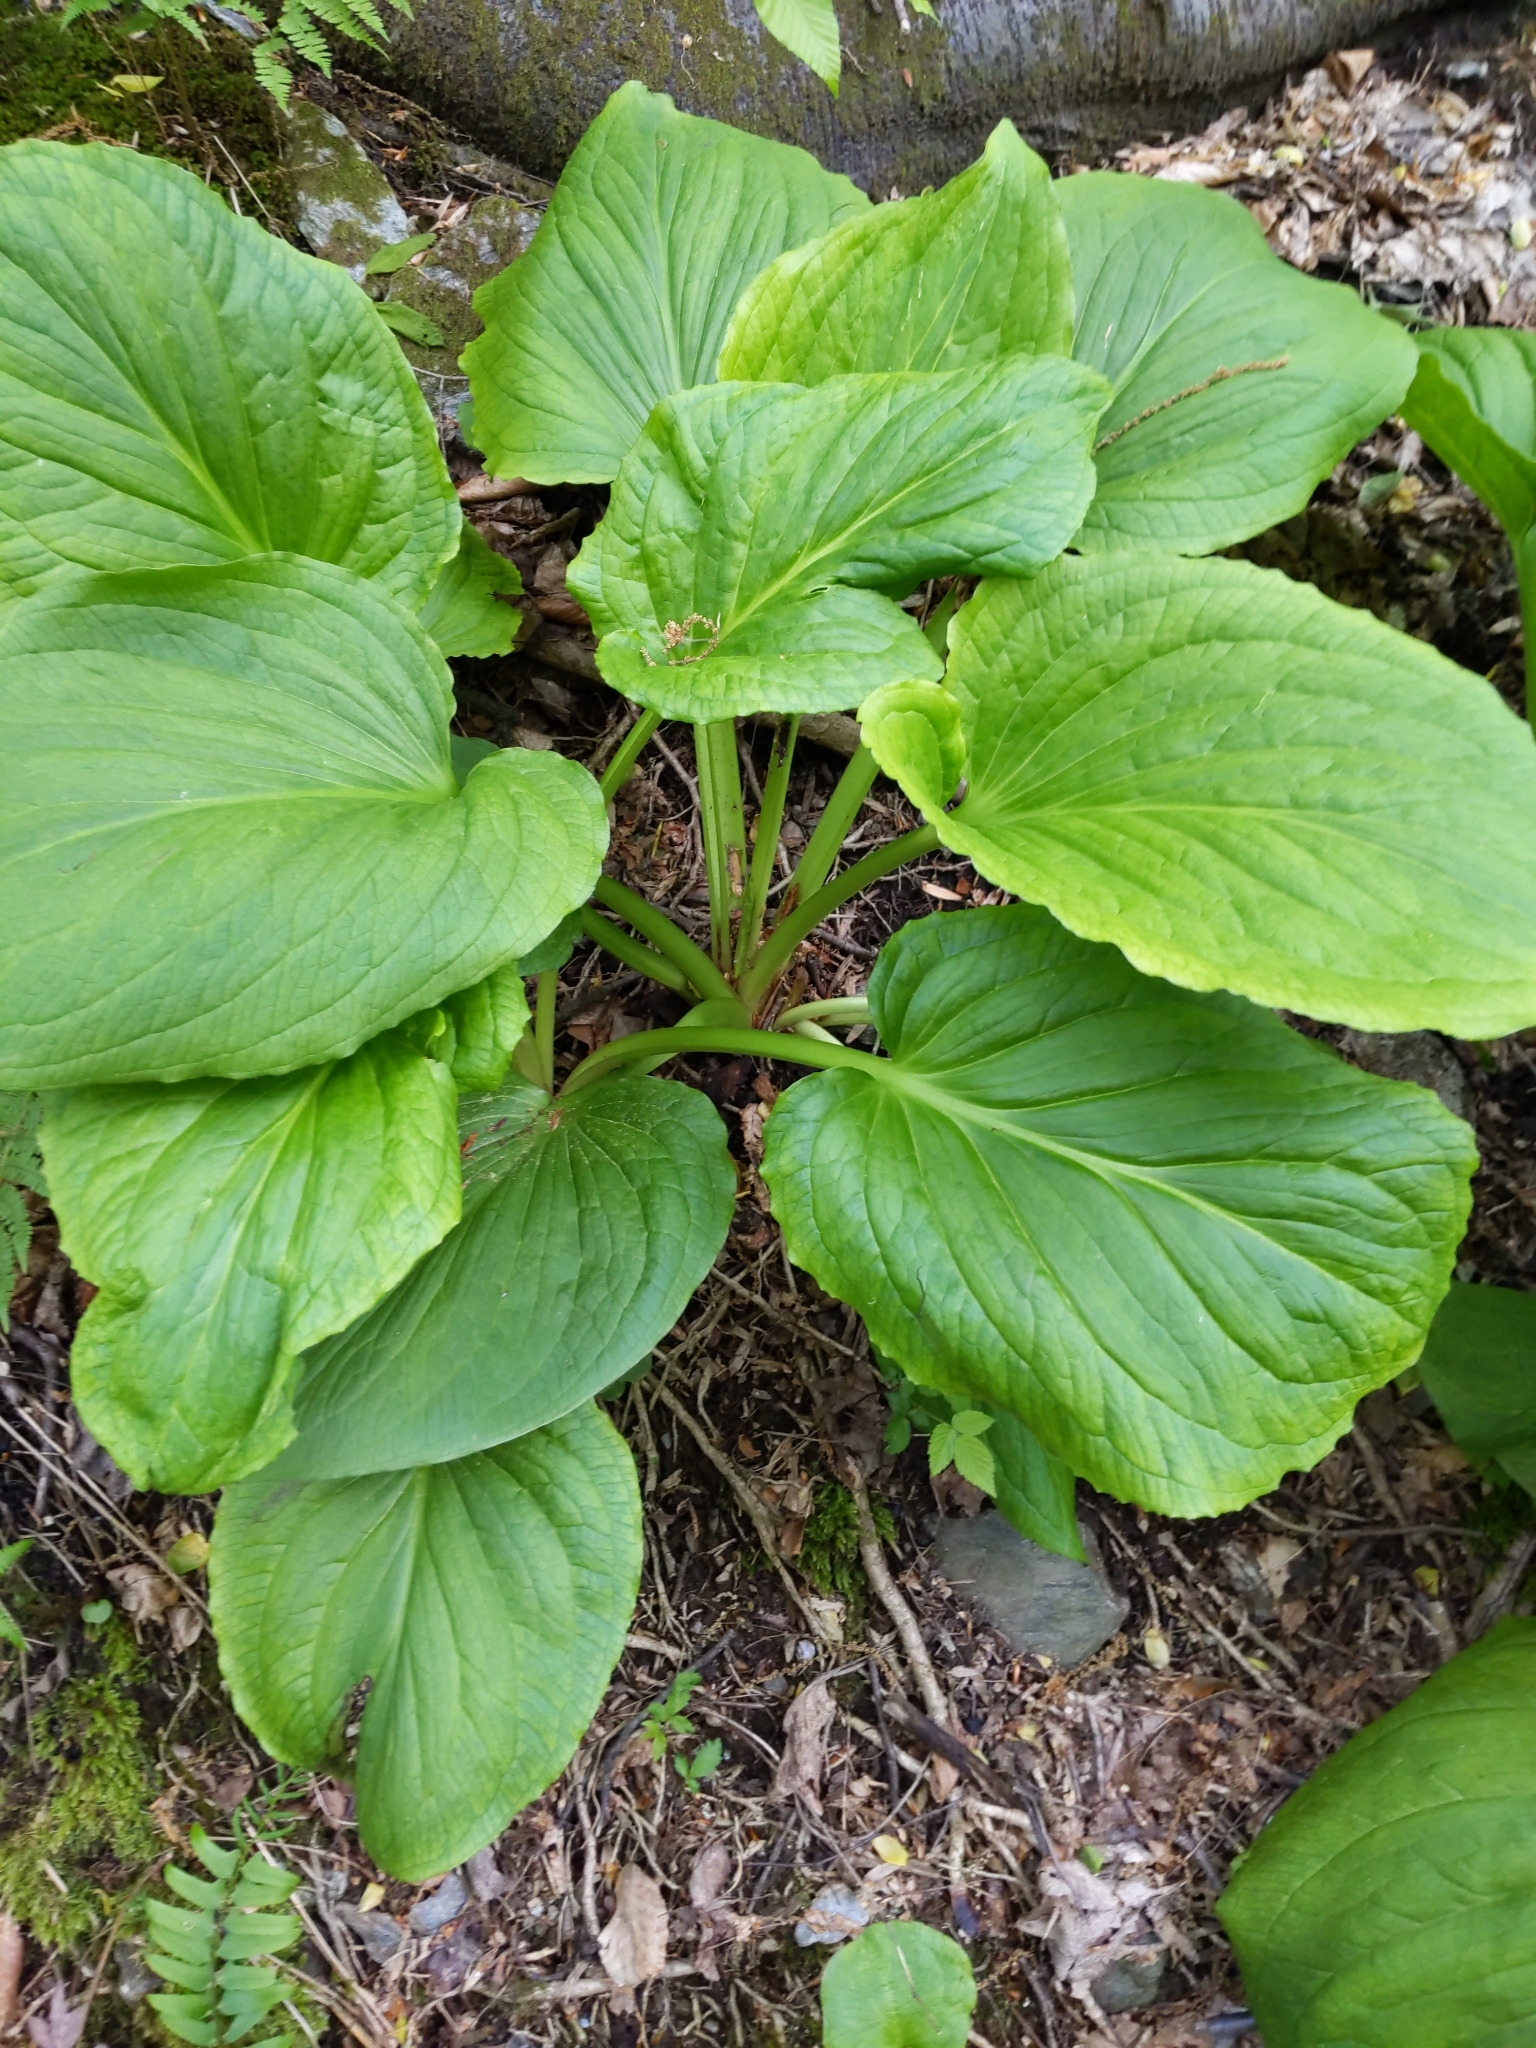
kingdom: Plantae
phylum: Tracheophyta
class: Liliopsida
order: Alismatales
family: Araceae
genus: Symplocarpus
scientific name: Symplocarpus foetidus
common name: Eastern skunk cabbage
